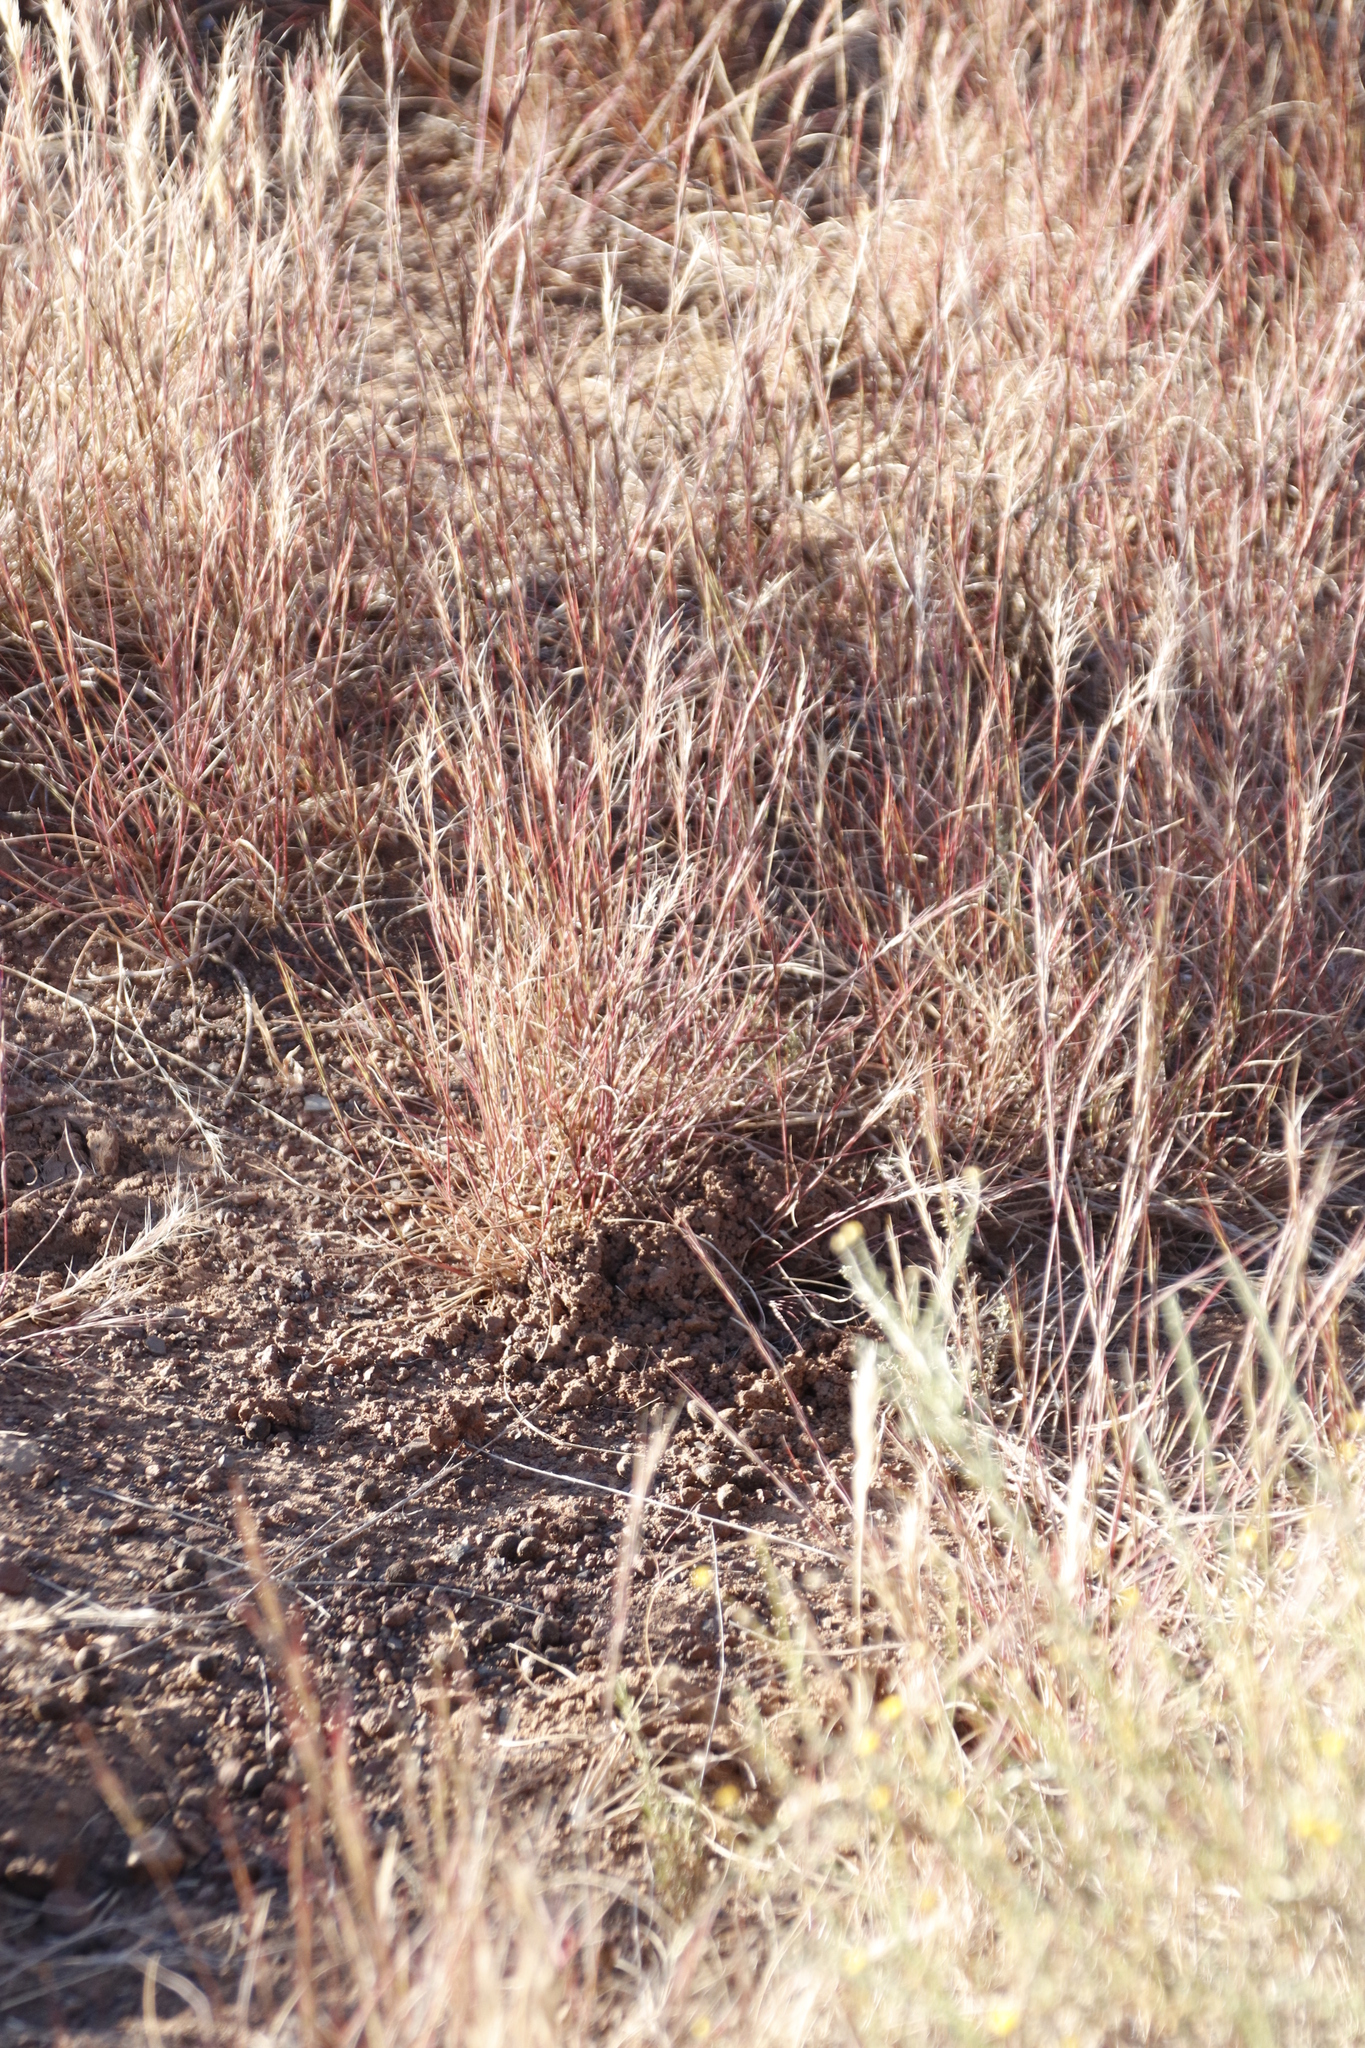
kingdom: Plantae
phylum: Tracheophyta
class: Liliopsida
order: Poales
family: Poaceae
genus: Aristida
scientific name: Aristida adscensionis
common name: Sixweeks threeawn
